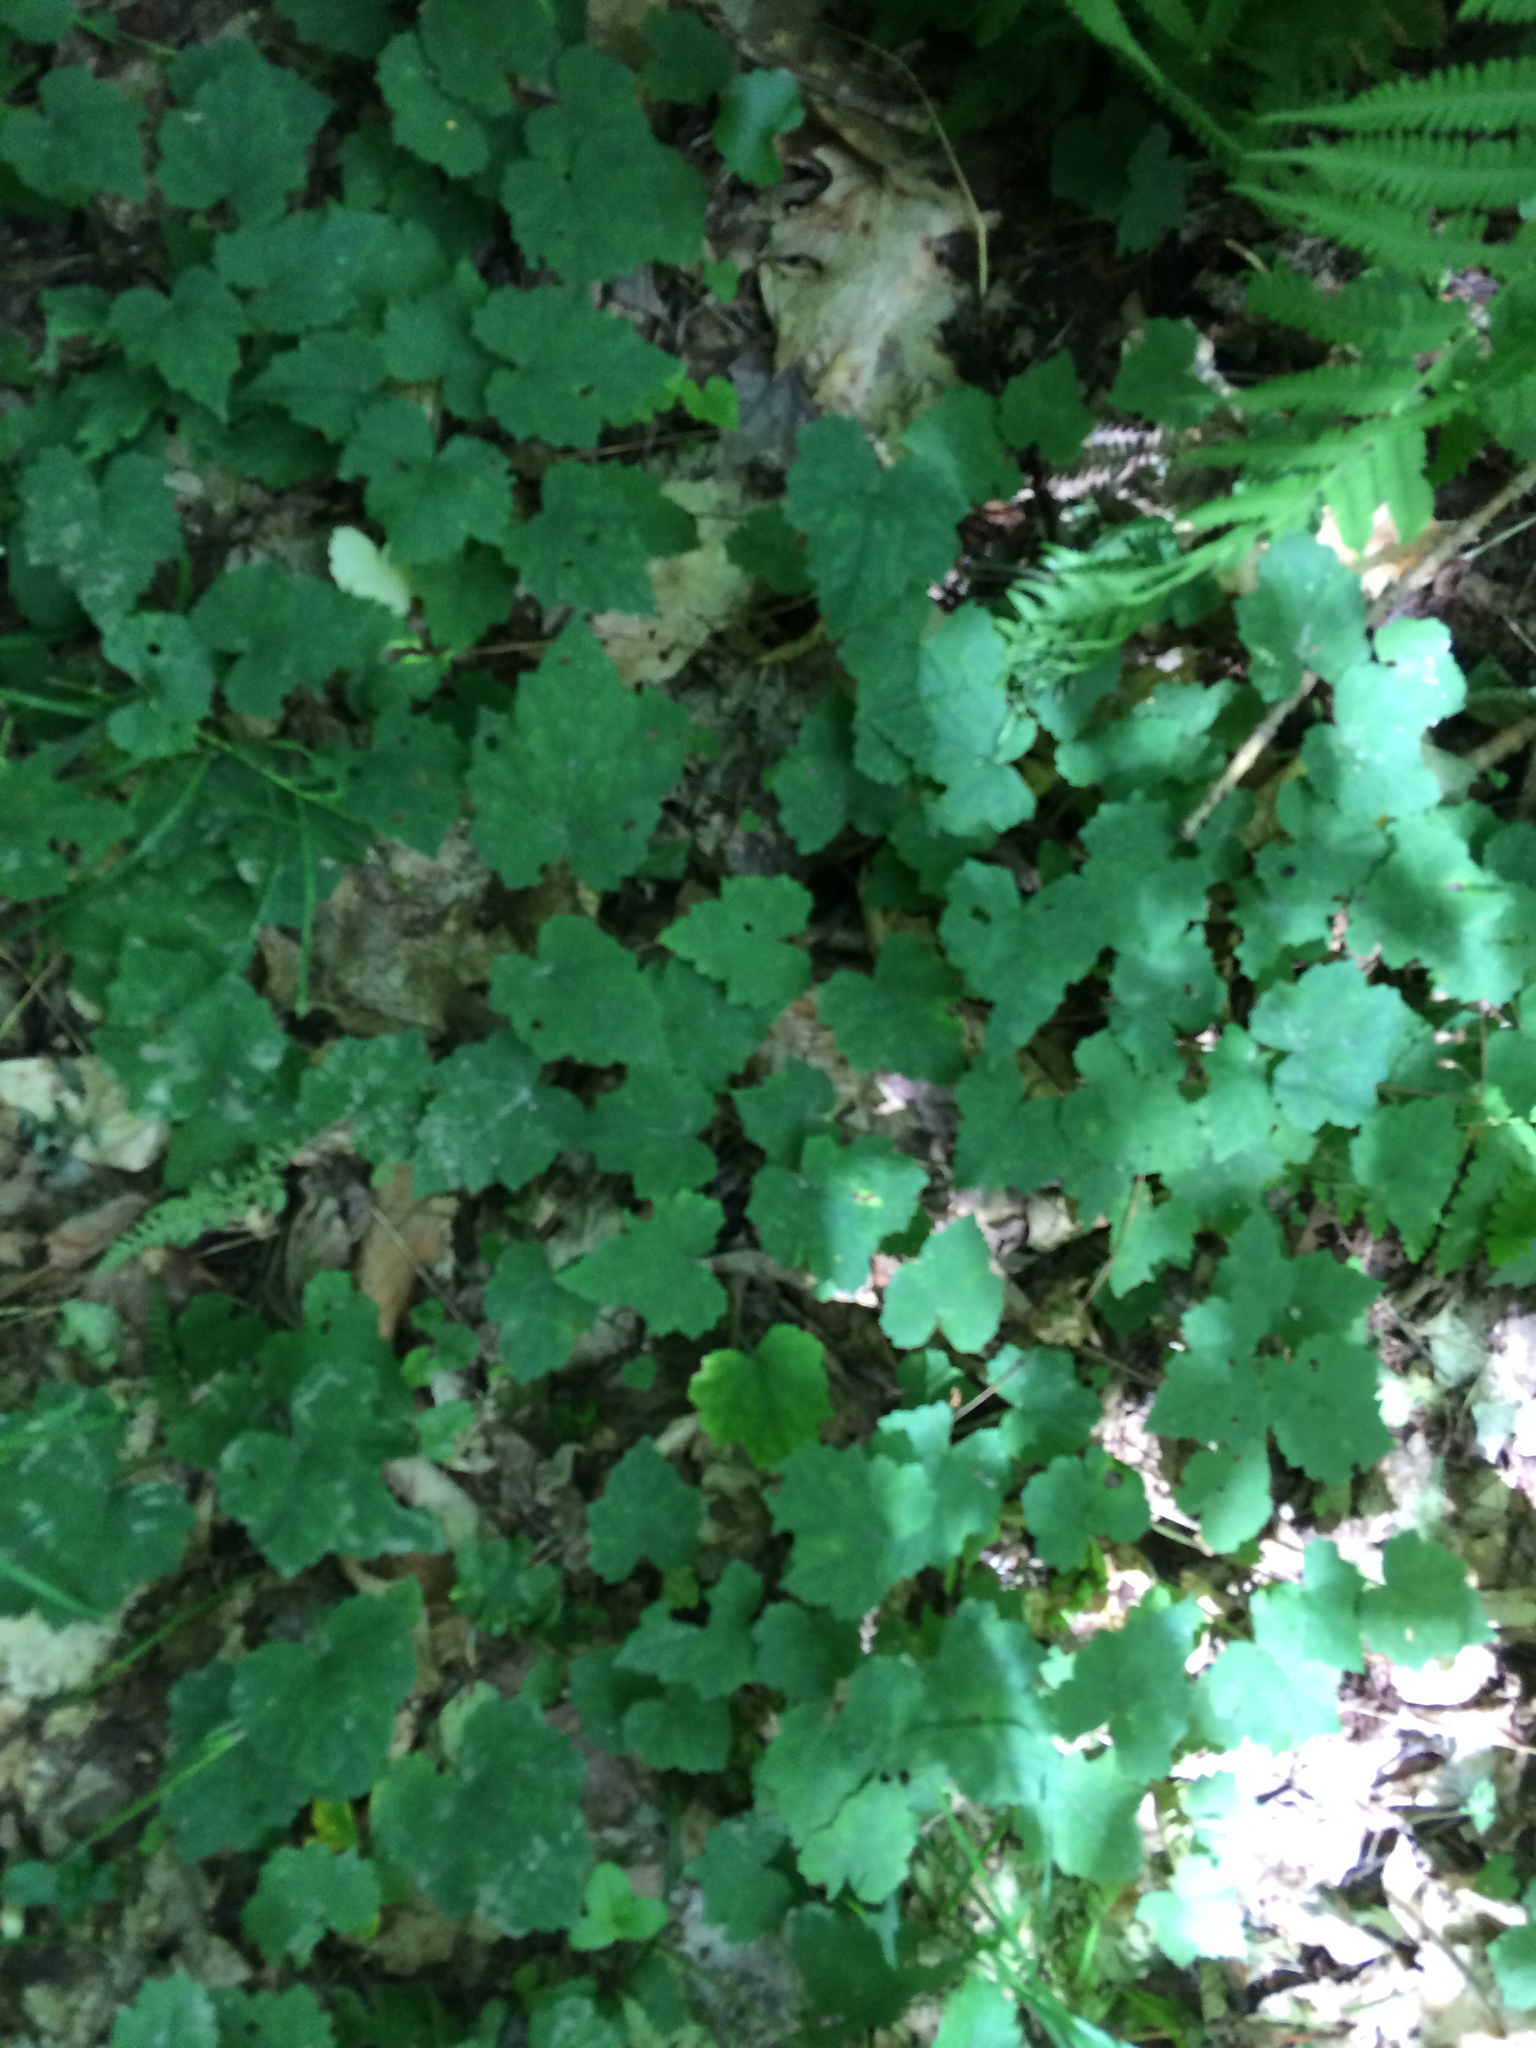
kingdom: Plantae
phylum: Tracheophyta
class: Magnoliopsida
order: Saxifragales
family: Saxifragaceae
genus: Tiarella
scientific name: Tiarella stolonifera
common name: Stoloniferous foamflower
